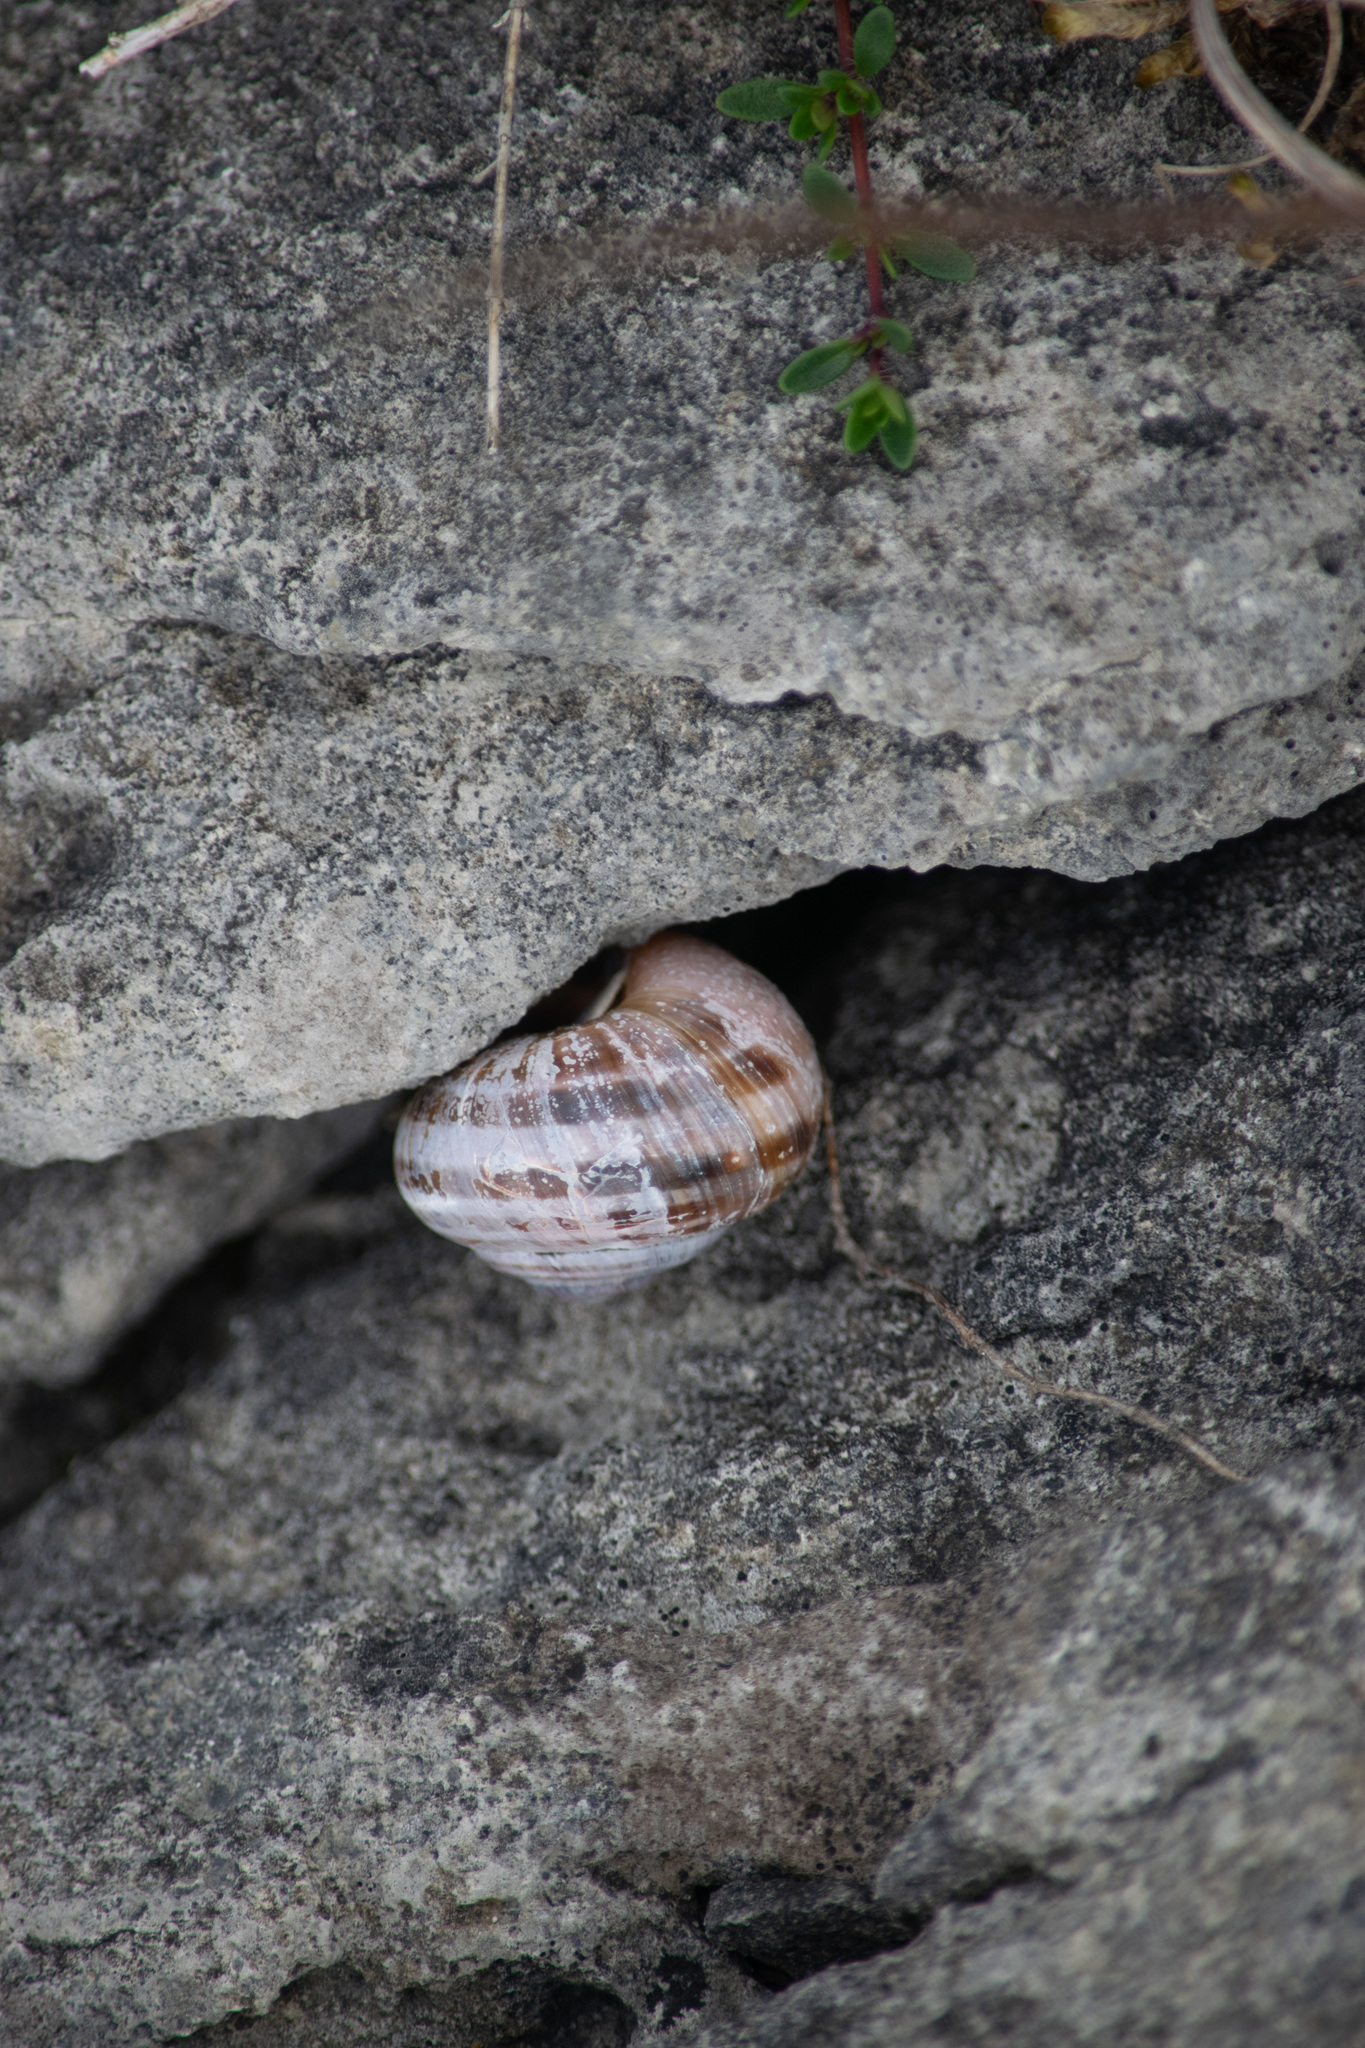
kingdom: Animalia
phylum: Mollusca
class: Gastropoda
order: Stylommatophora
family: Helicidae
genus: Cornu
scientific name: Cornu aspersum
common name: Brown garden snail
